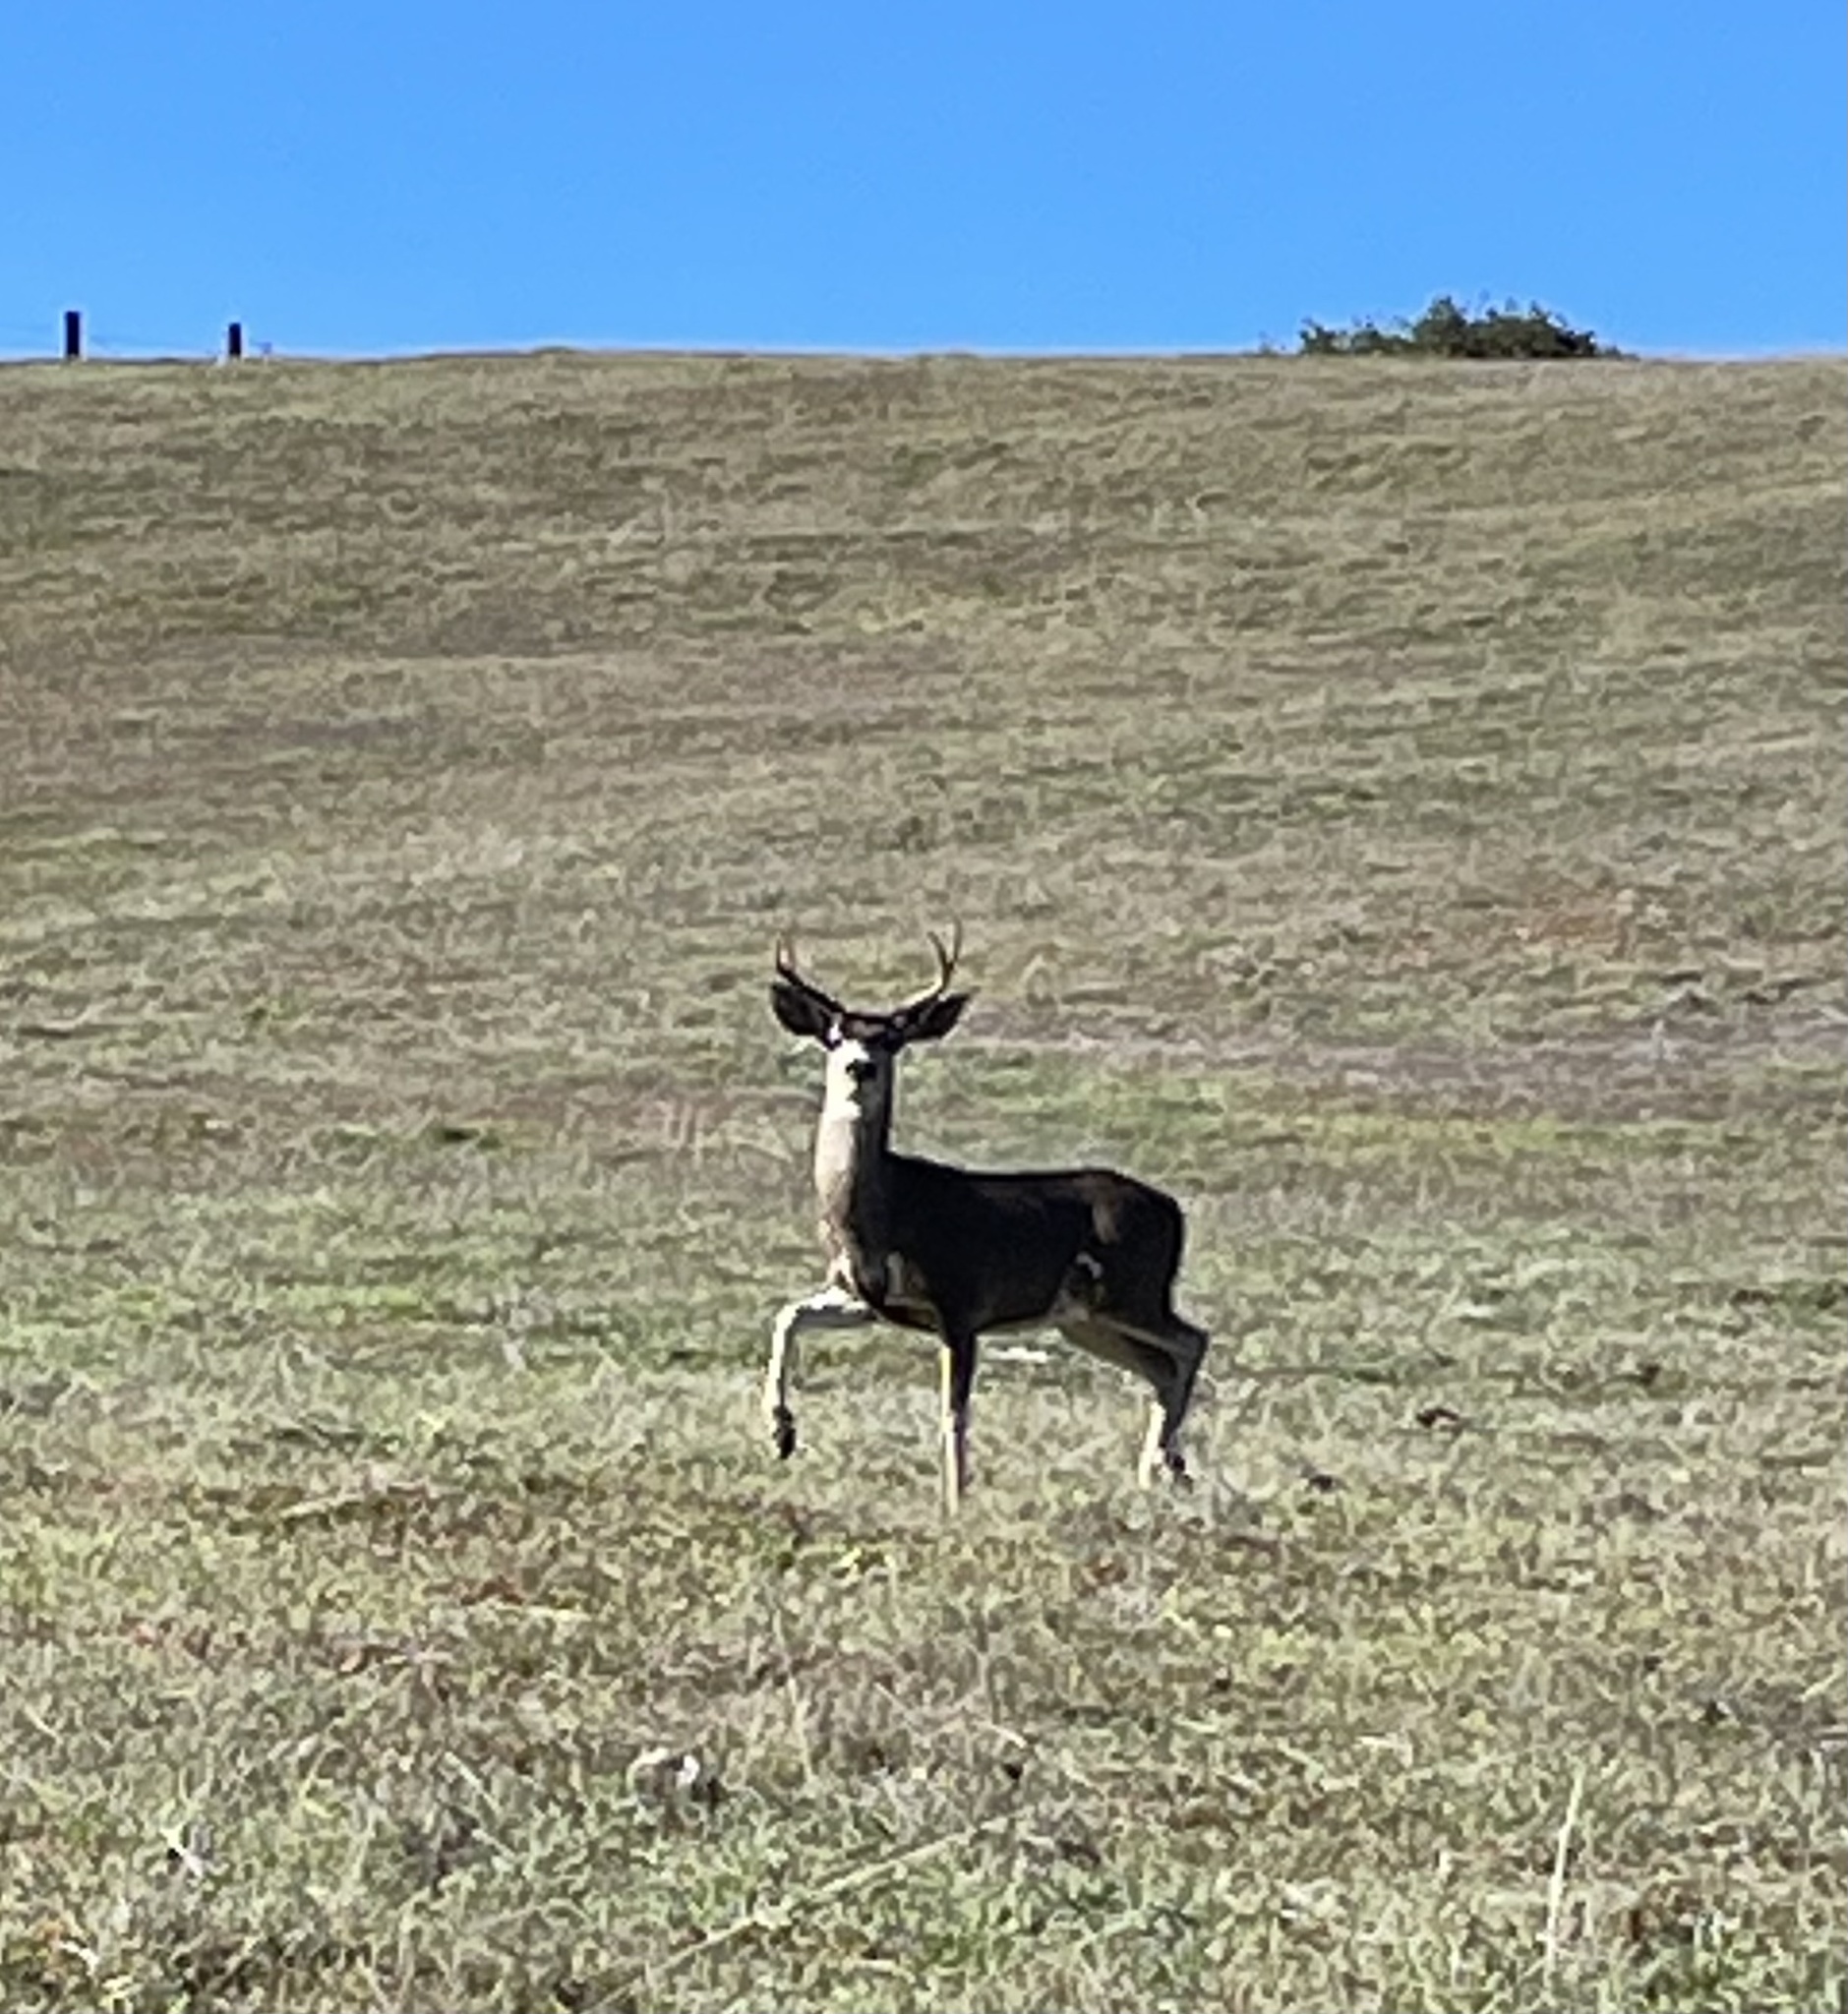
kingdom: Animalia
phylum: Chordata
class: Mammalia
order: Artiodactyla
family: Cervidae
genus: Odocoileus
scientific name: Odocoileus hemionus
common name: Mule deer
